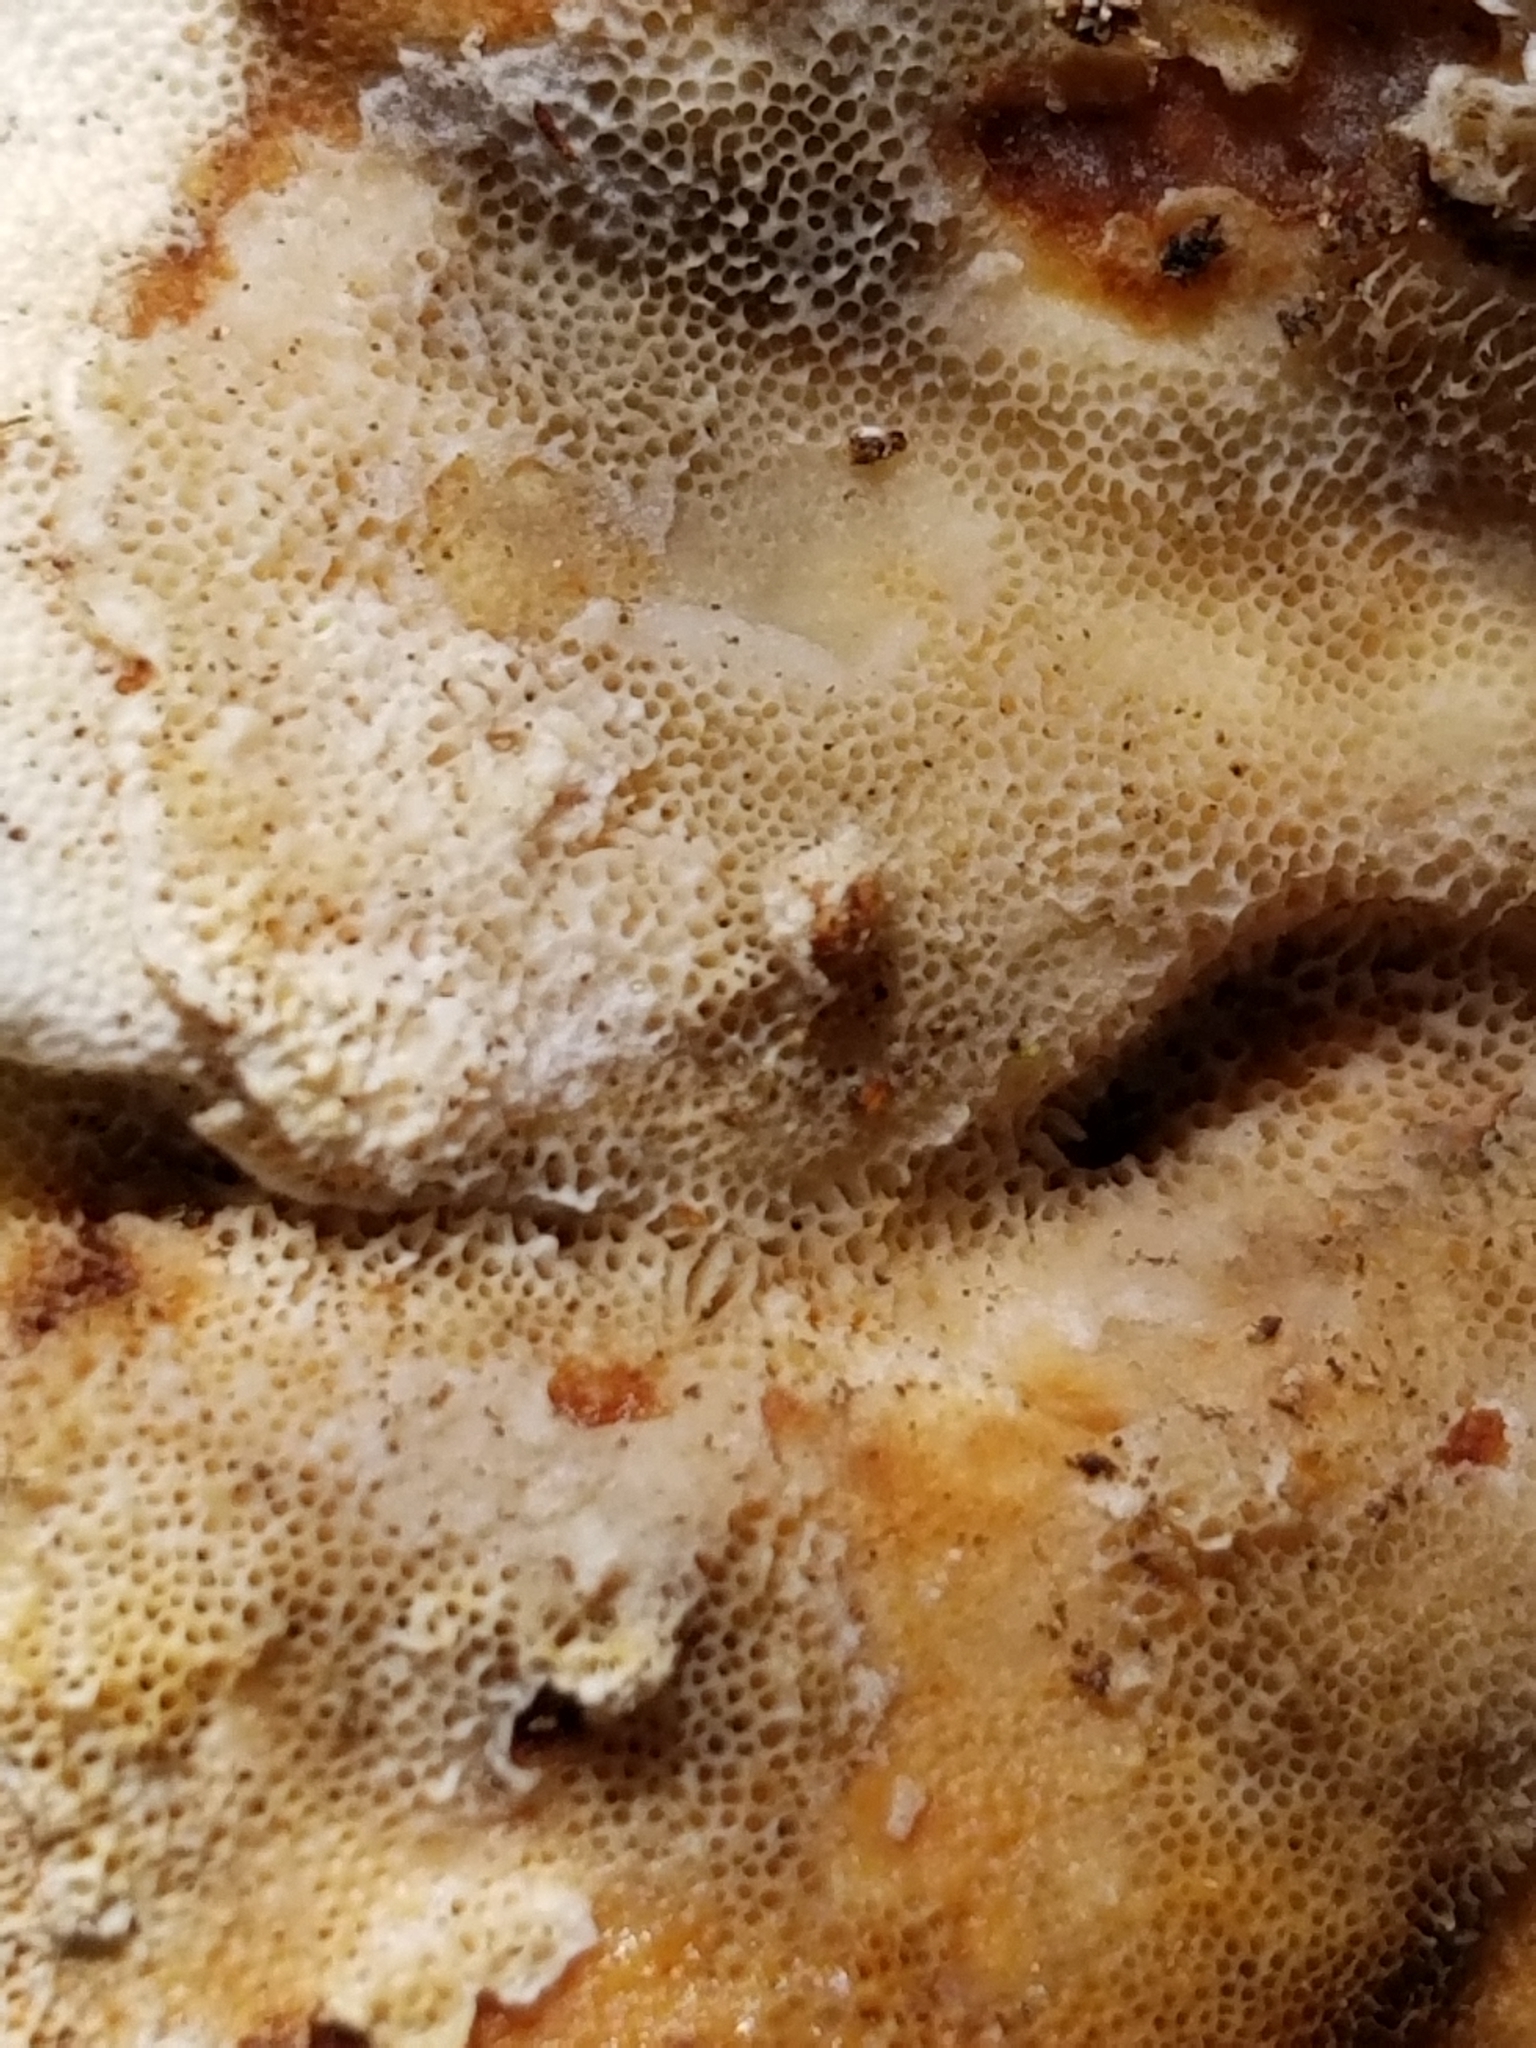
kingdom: Fungi
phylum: Basidiomycota
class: Agaricomycetes
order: Polyporales
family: Polyporaceae
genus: Trametes
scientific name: Trametes versicolor
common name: Turkeytail
